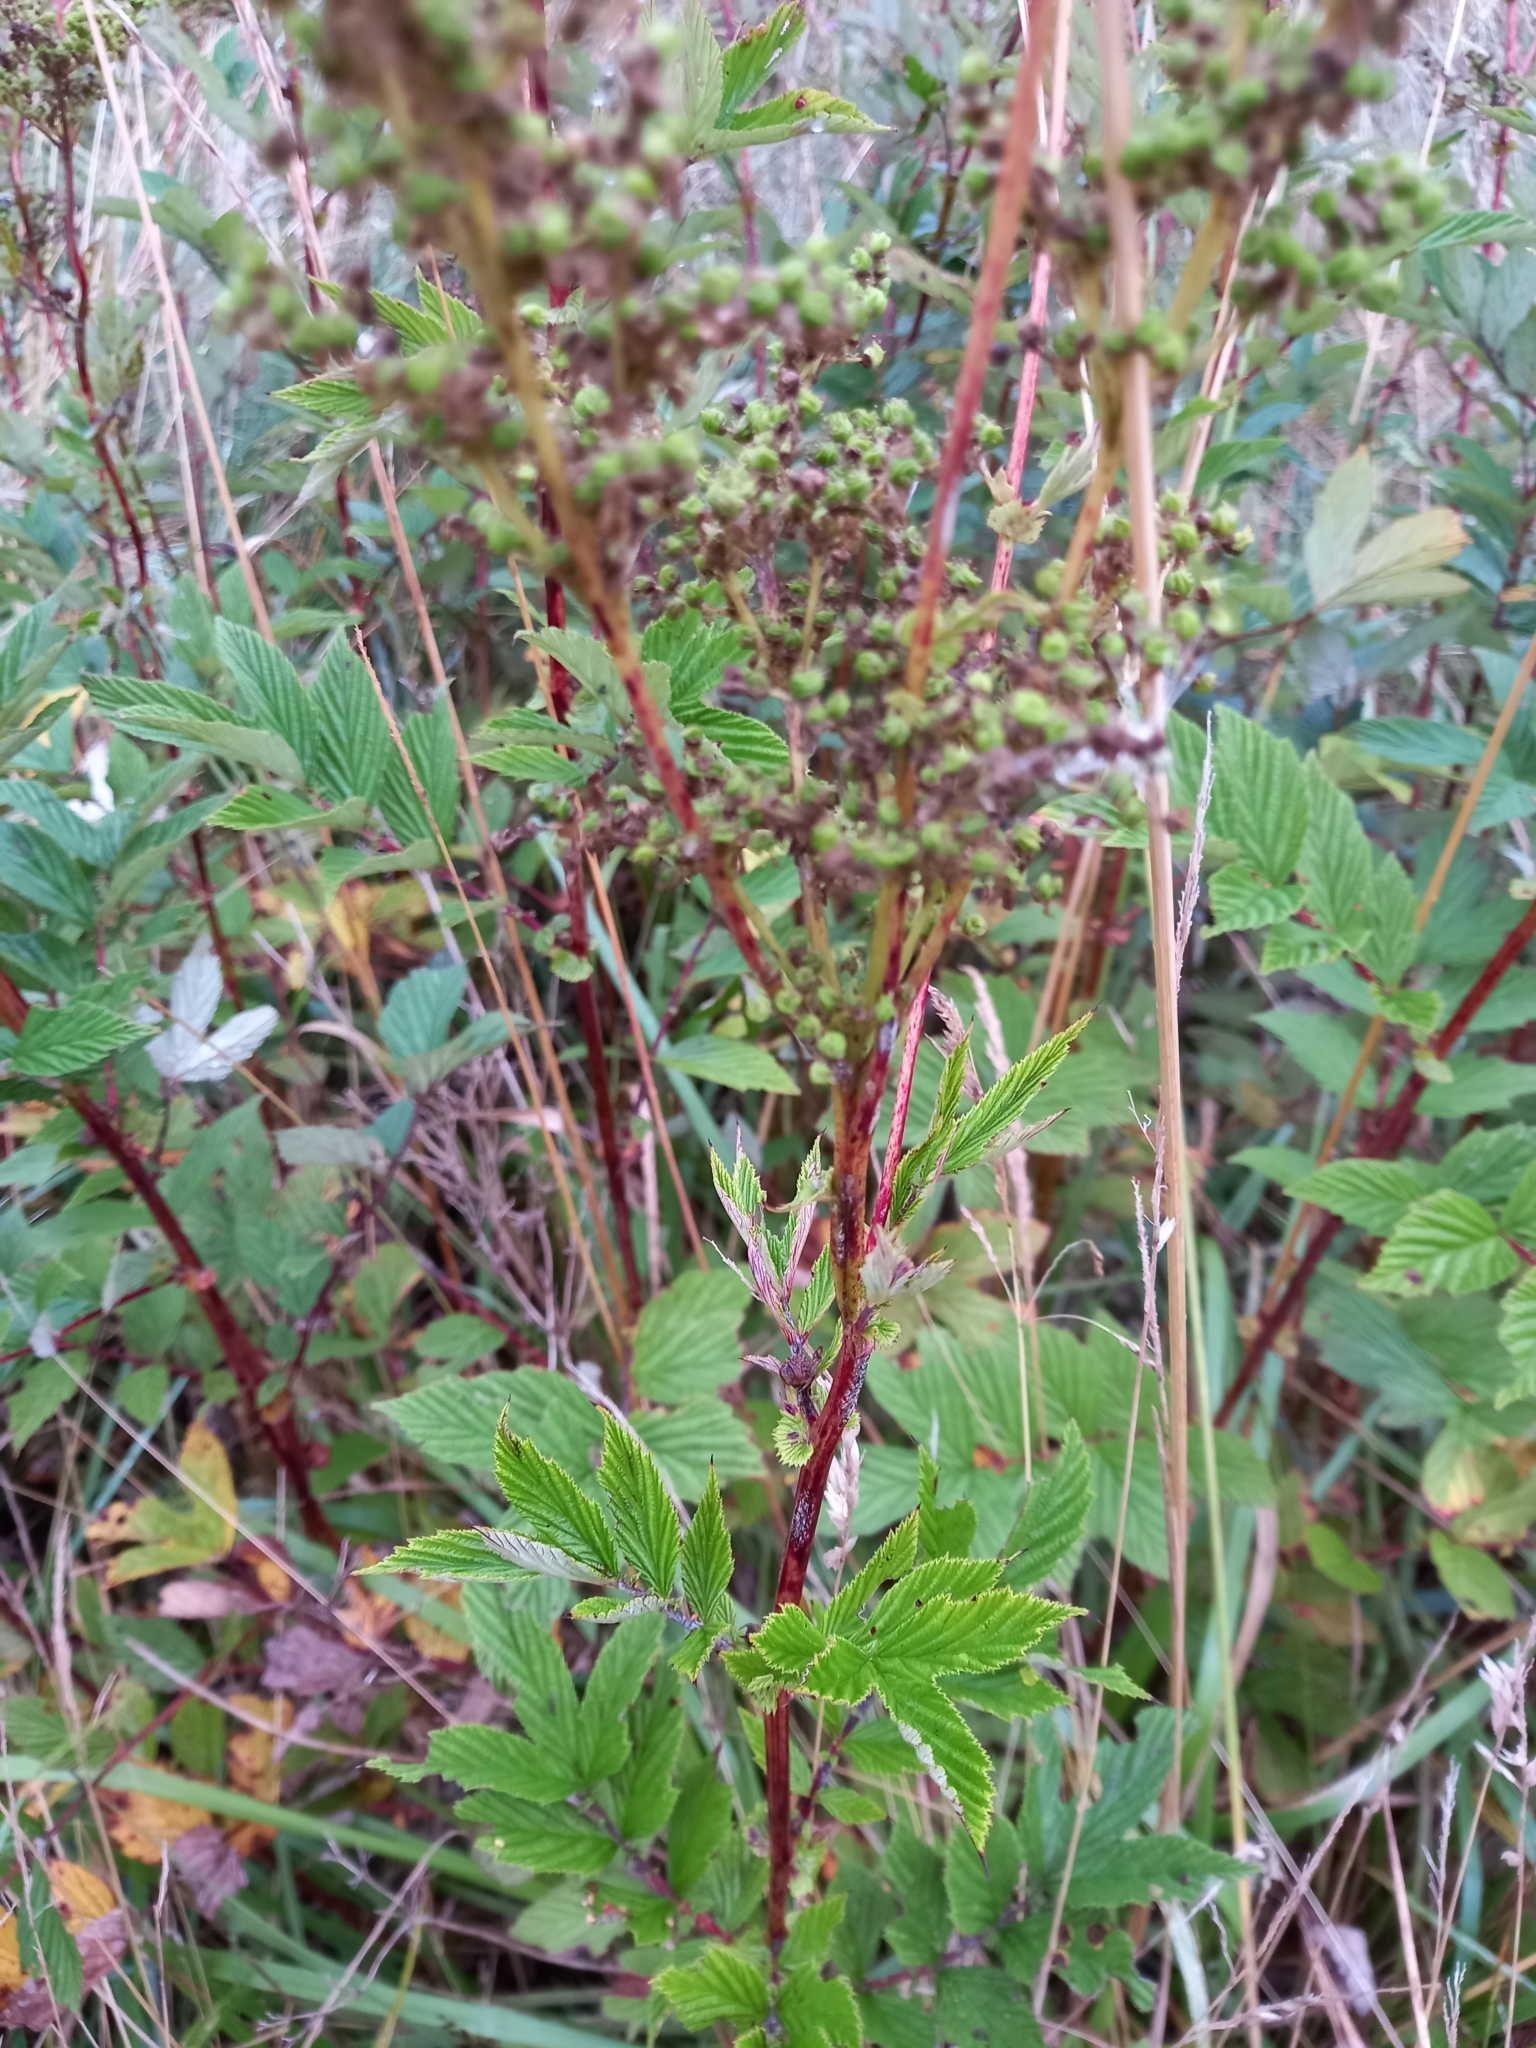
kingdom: Plantae
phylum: Tracheophyta
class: Magnoliopsida
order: Rosales
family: Rosaceae
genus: Filipendula
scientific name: Filipendula ulmaria
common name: Meadowsweet
